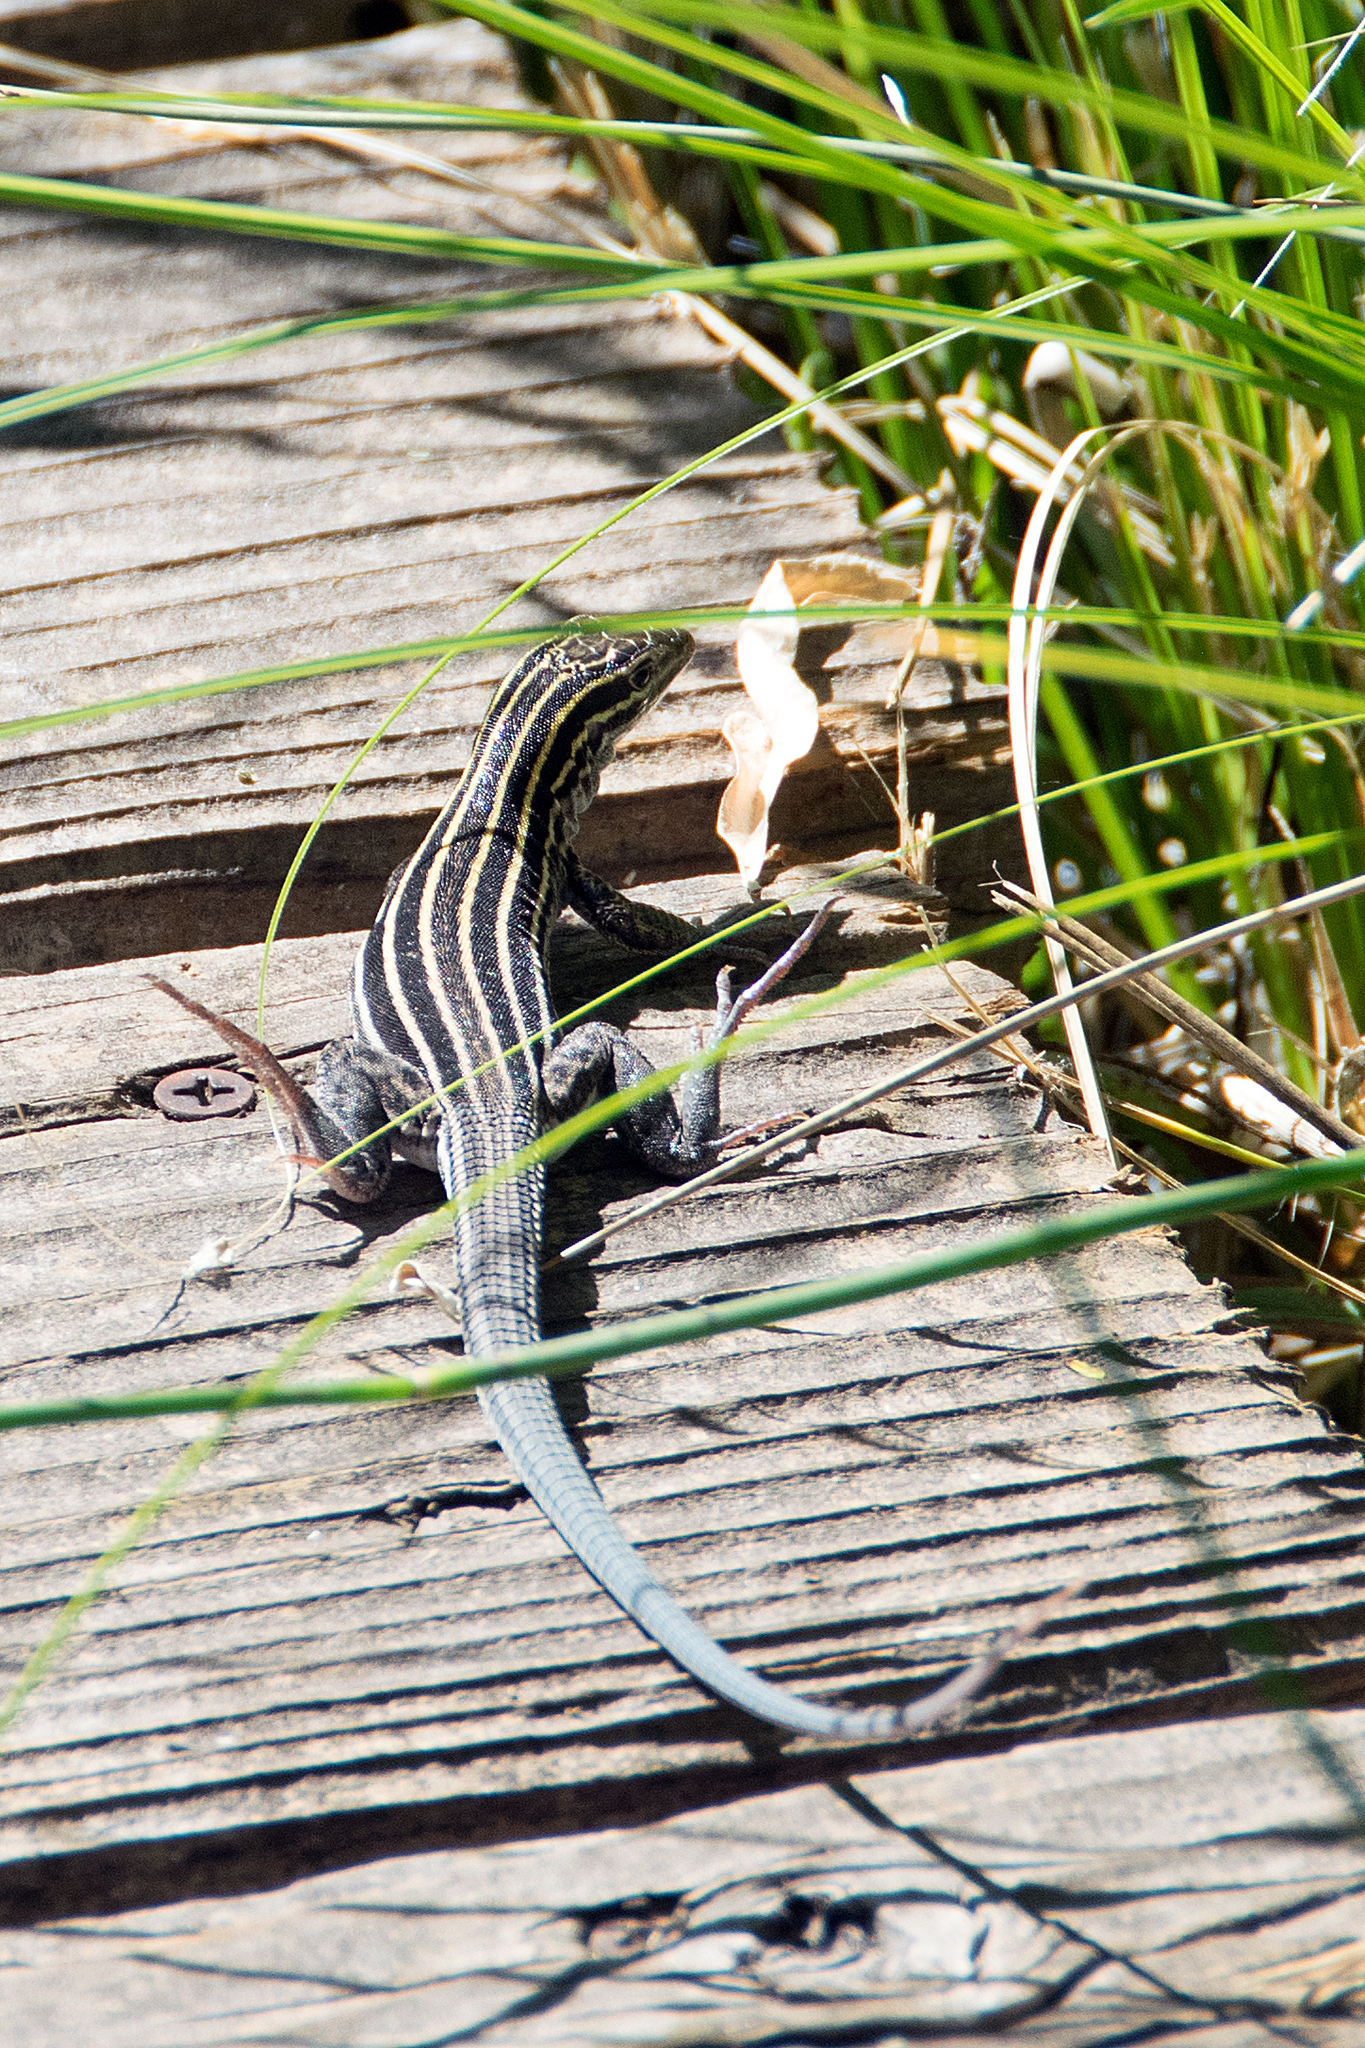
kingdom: Animalia
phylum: Chordata
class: Squamata
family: Teiidae
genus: Aspidoscelis
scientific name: Aspidoscelis velox
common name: Plateau striped whiptail
